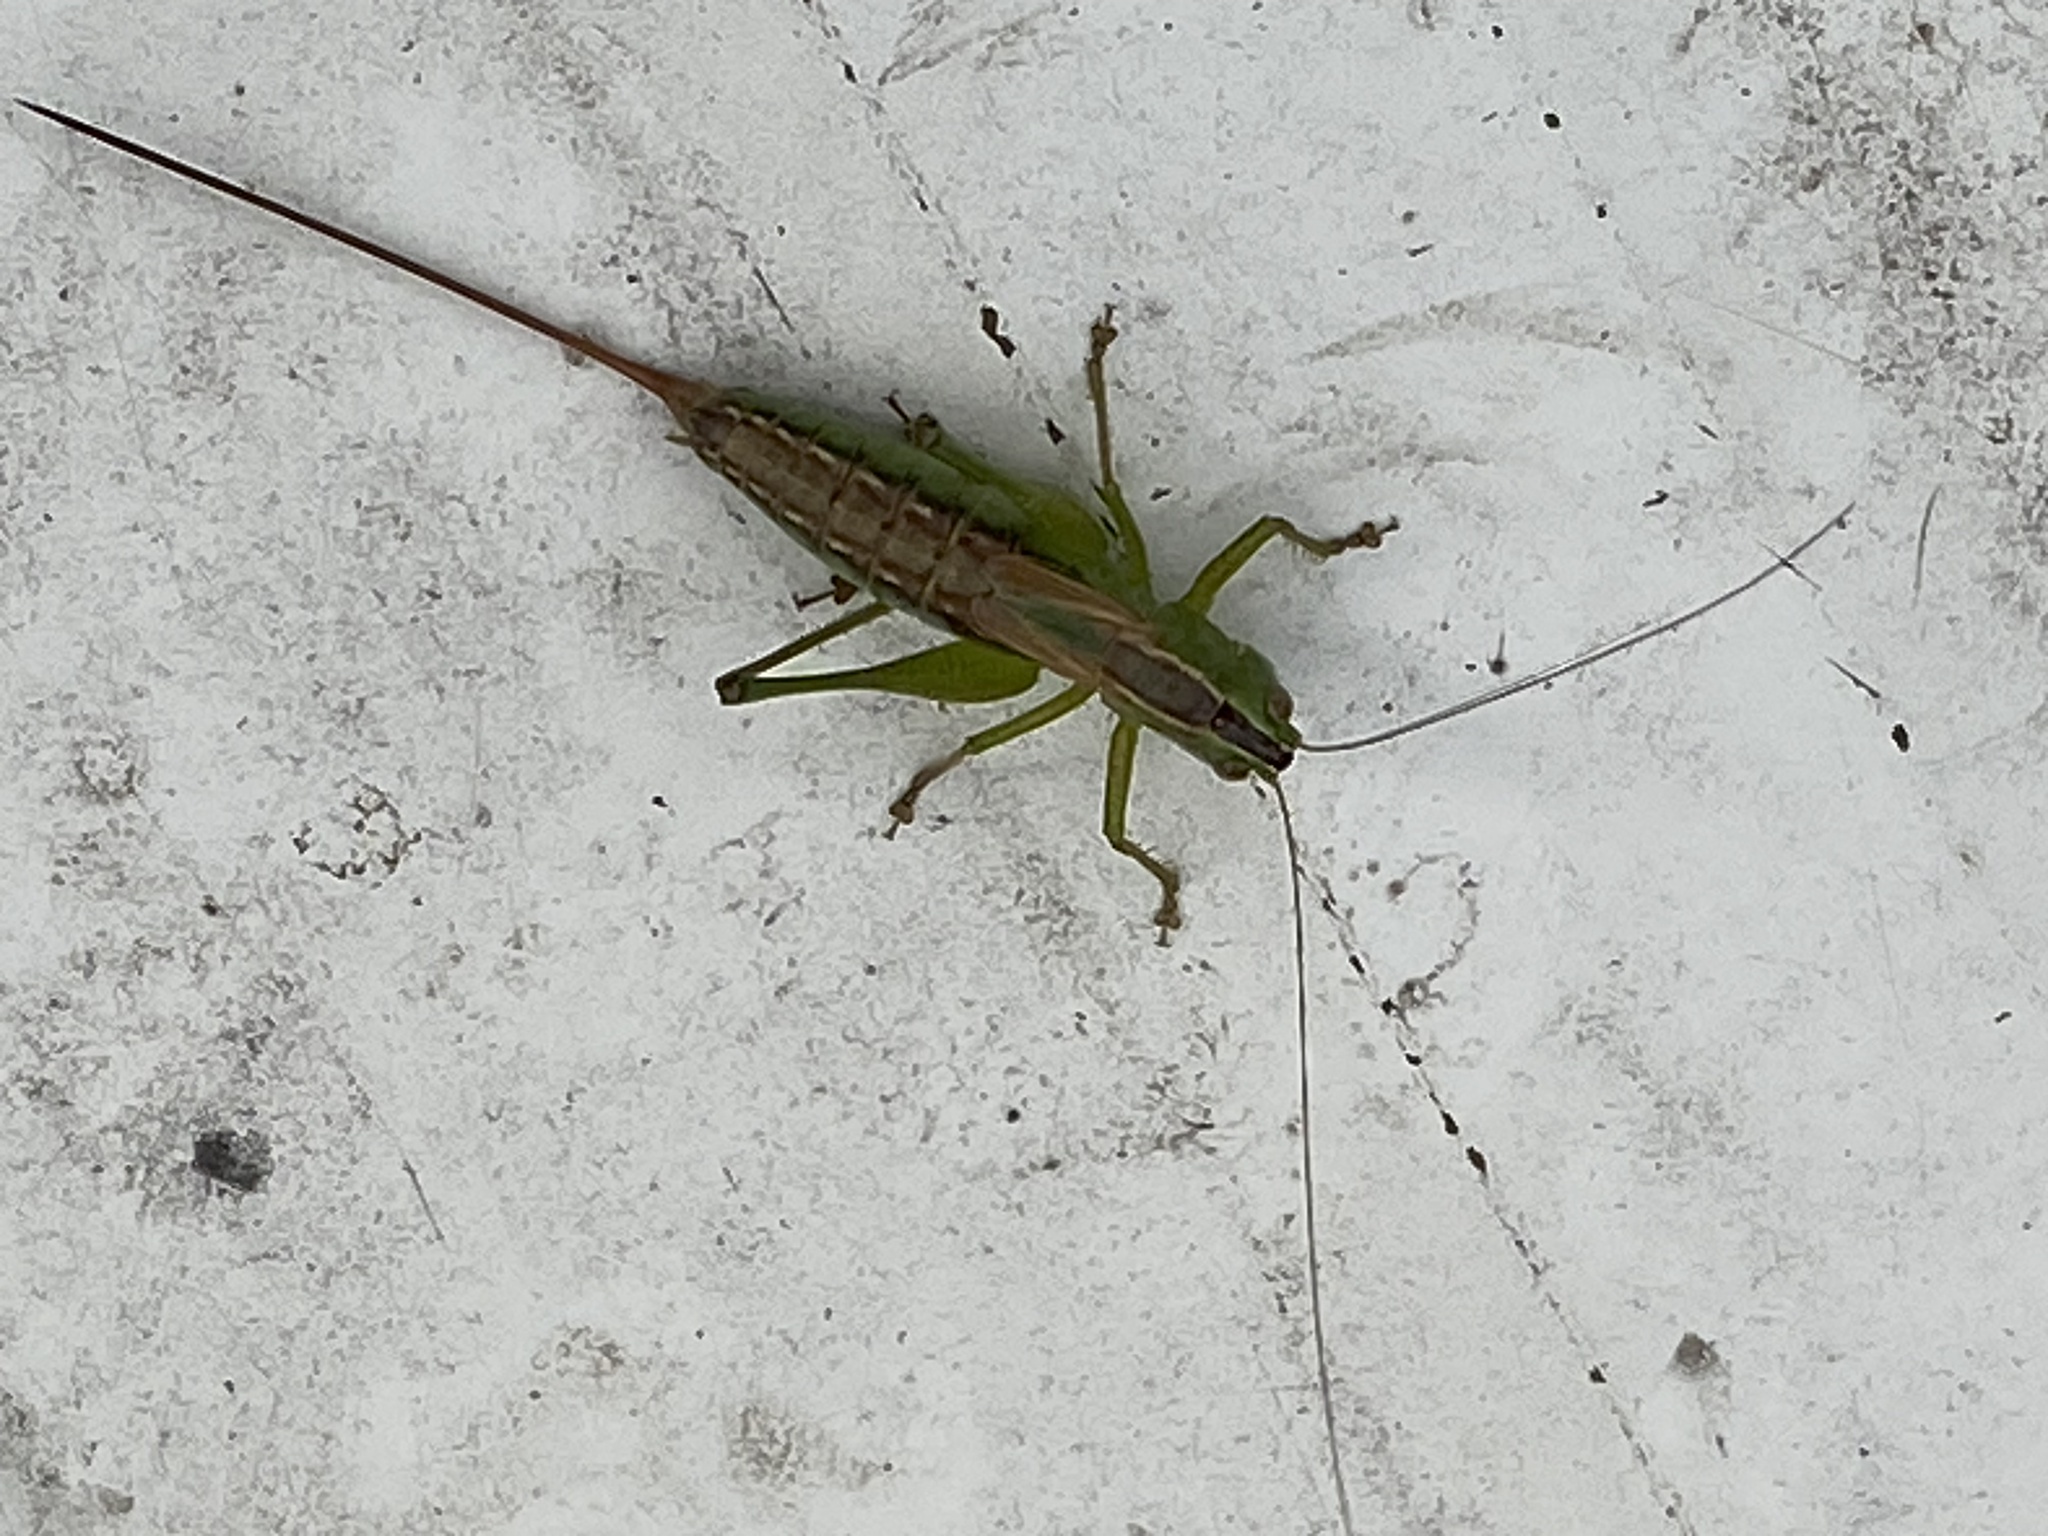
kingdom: Animalia
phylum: Arthropoda
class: Insecta
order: Orthoptera
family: Tettigoniidae
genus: Conocephalus
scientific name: Conocephalus strictus
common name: Straight-lanced katydid
